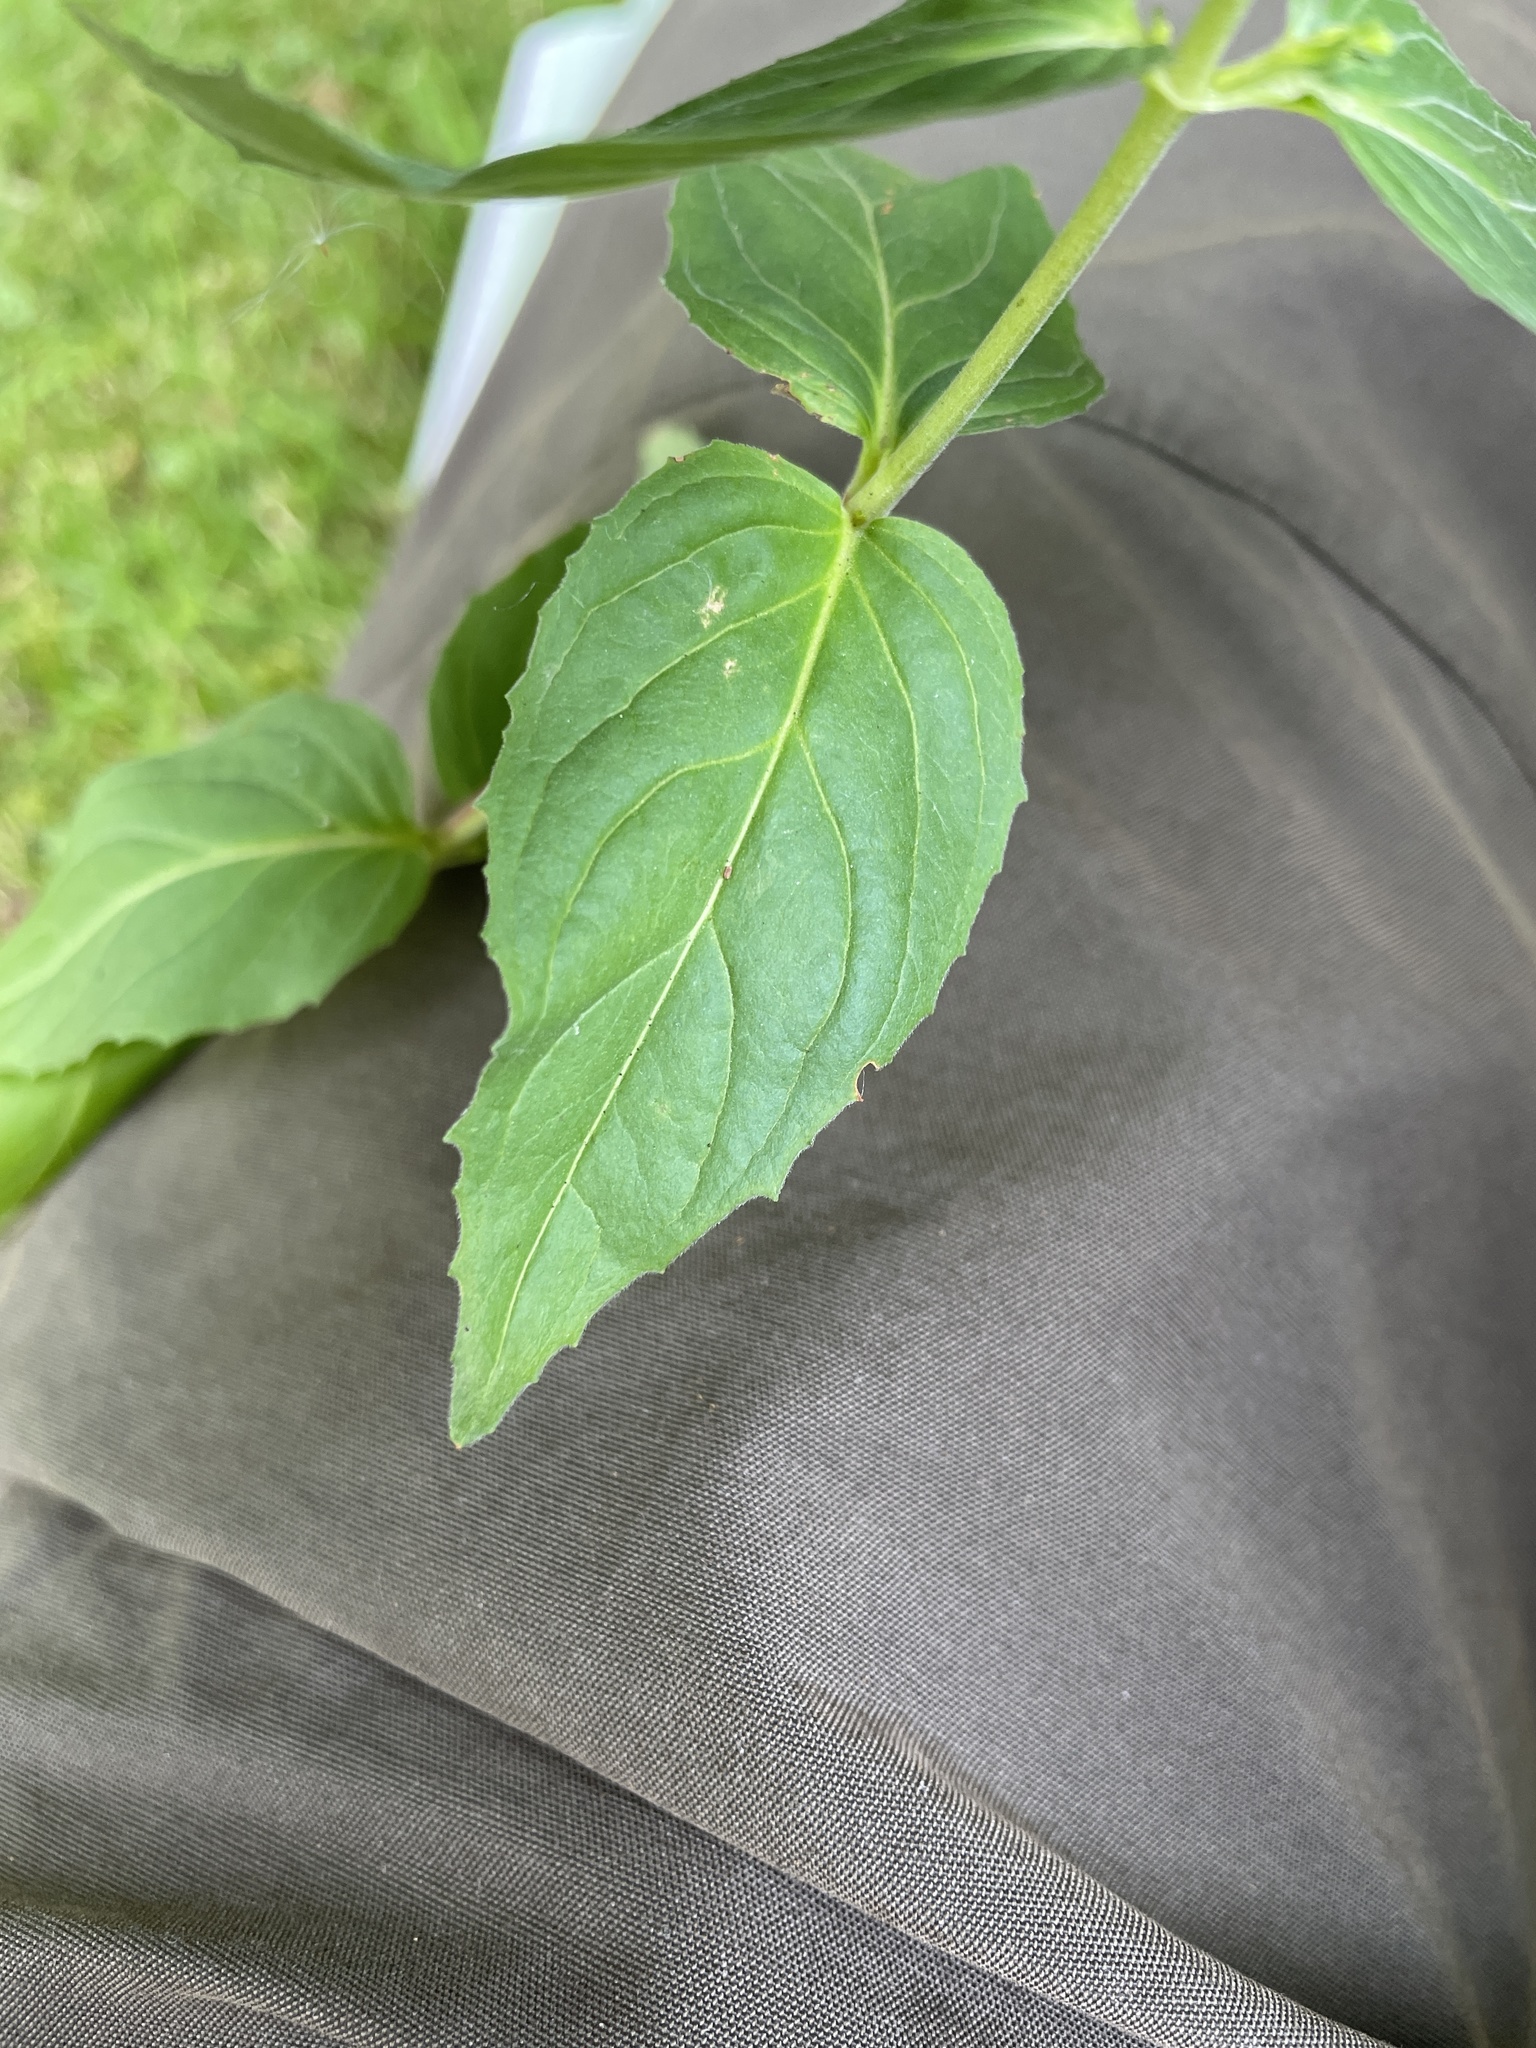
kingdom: Plantae
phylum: Tracheophyta
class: Magnoliopsida
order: Myrtales
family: Onagraceae
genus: Epilobium
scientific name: Epilobium montanum
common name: Broad-leaved willowherb
